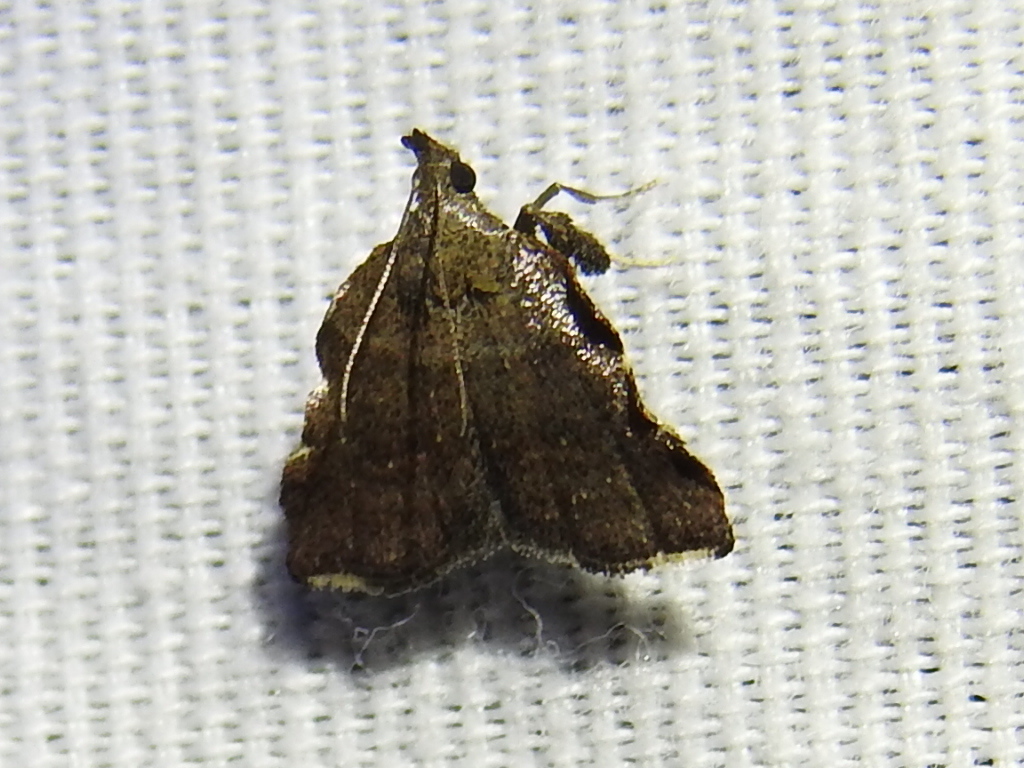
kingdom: Animalia
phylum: Arthropoda
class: Insecta
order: Lepidoptera
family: Pyralidae
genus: Salobrena
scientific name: Salobrena sincera
